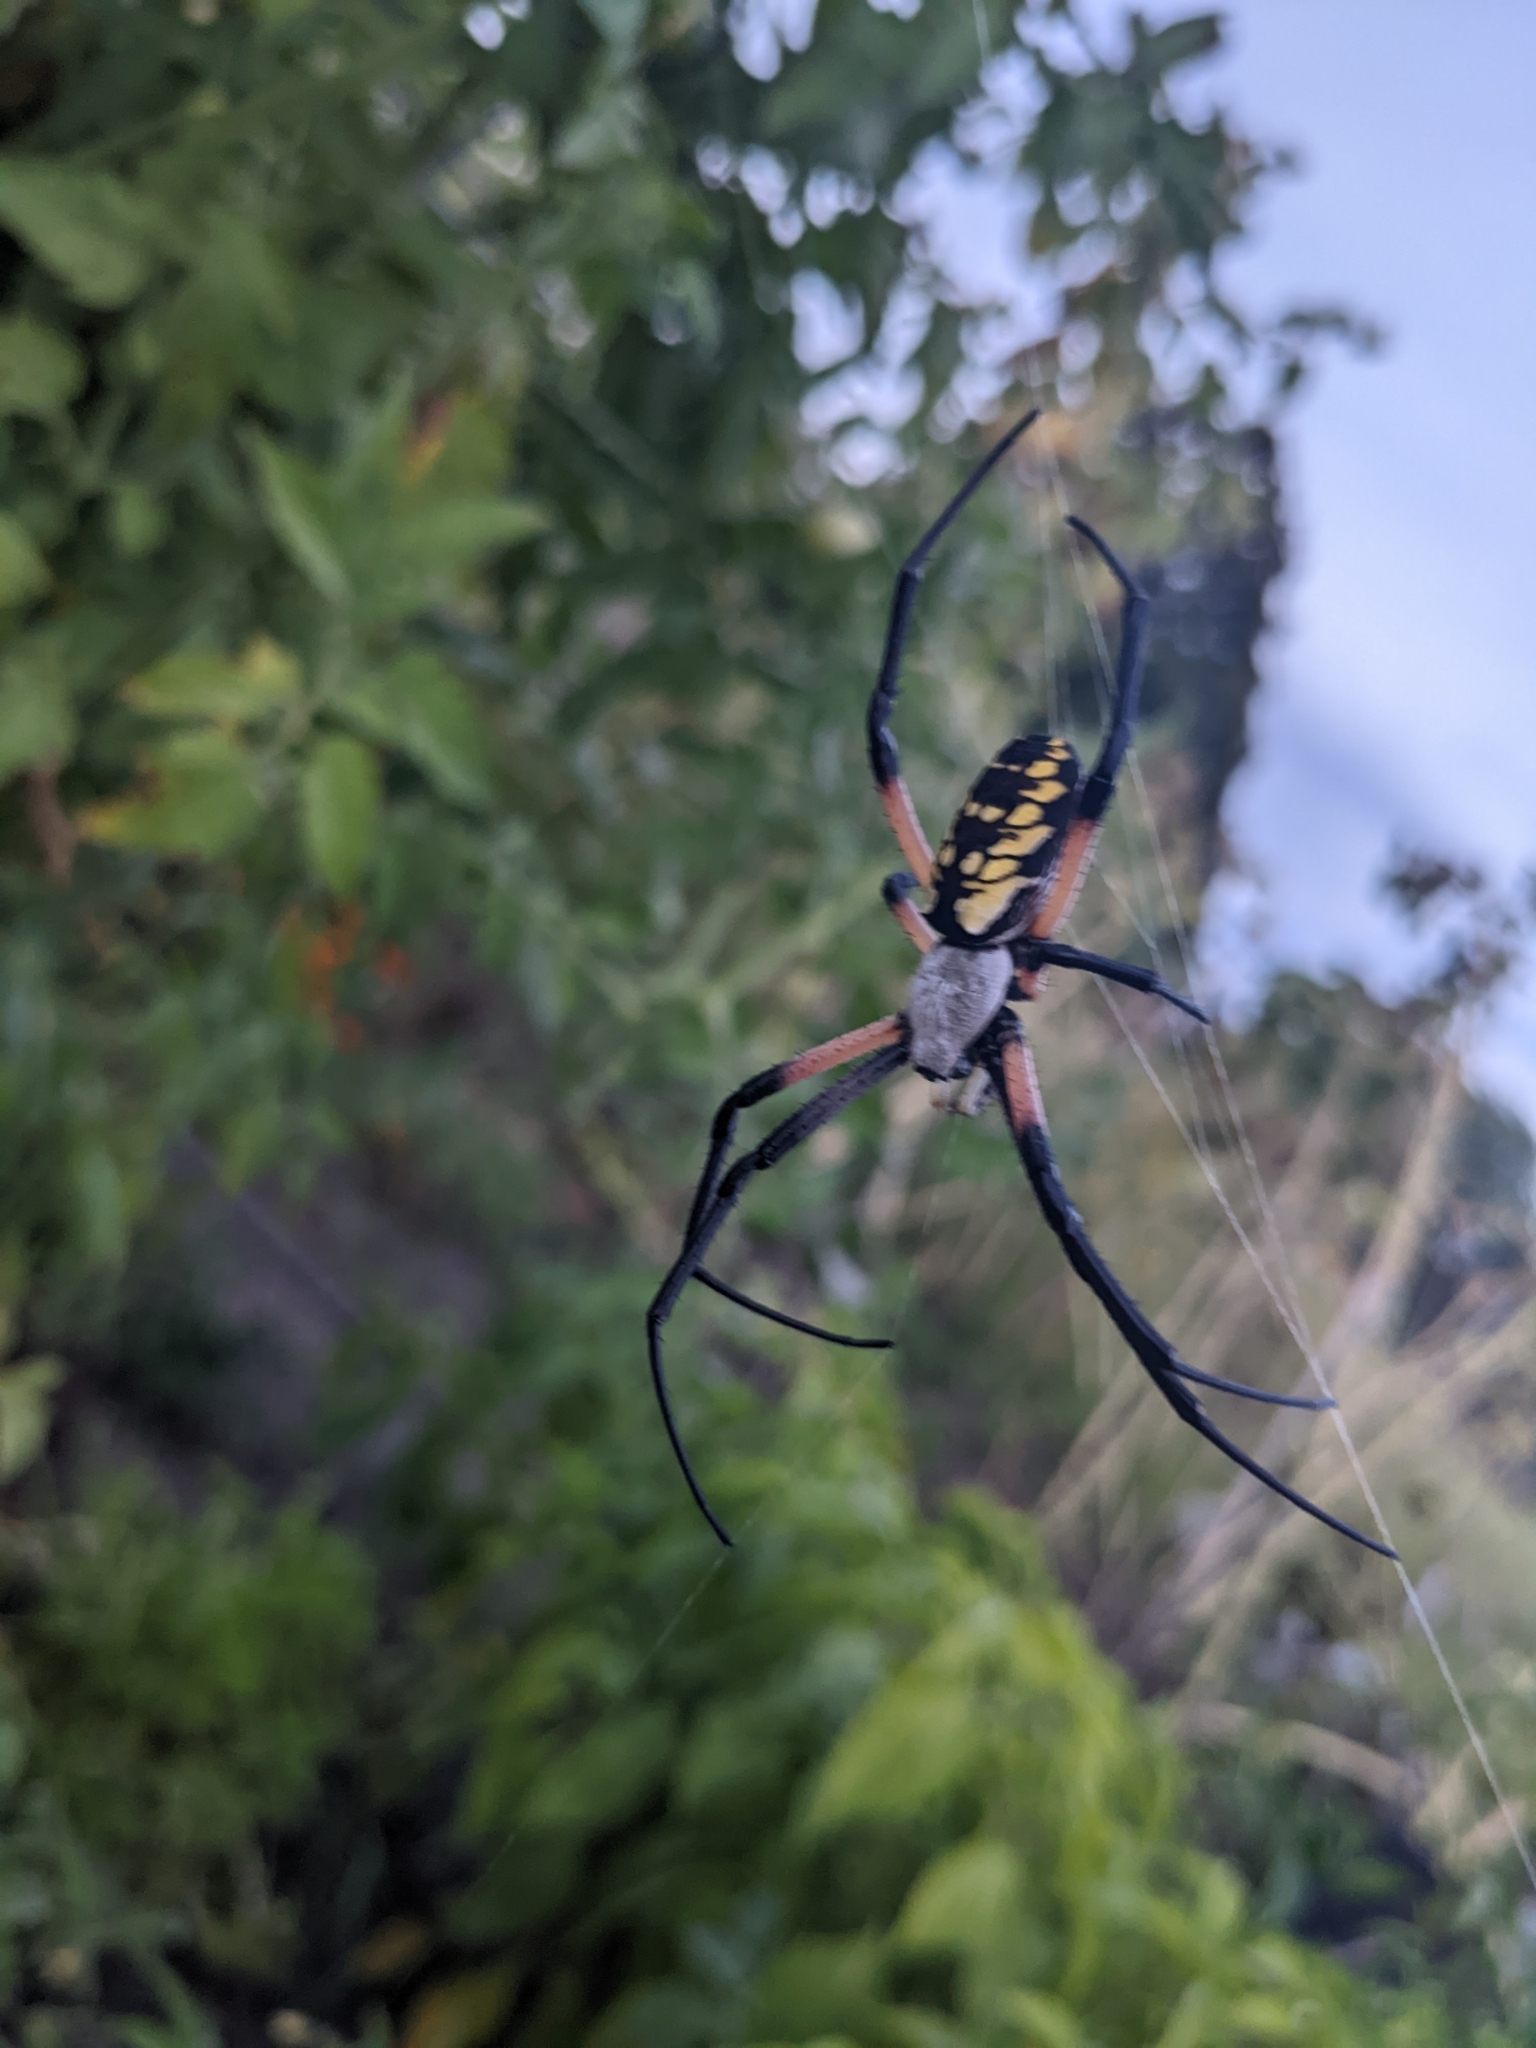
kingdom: Animalia
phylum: Arthropoda
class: Arachnida
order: Araneae
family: Araneidae
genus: Argiope
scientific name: Argiope aurantia
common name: Orb weavers
